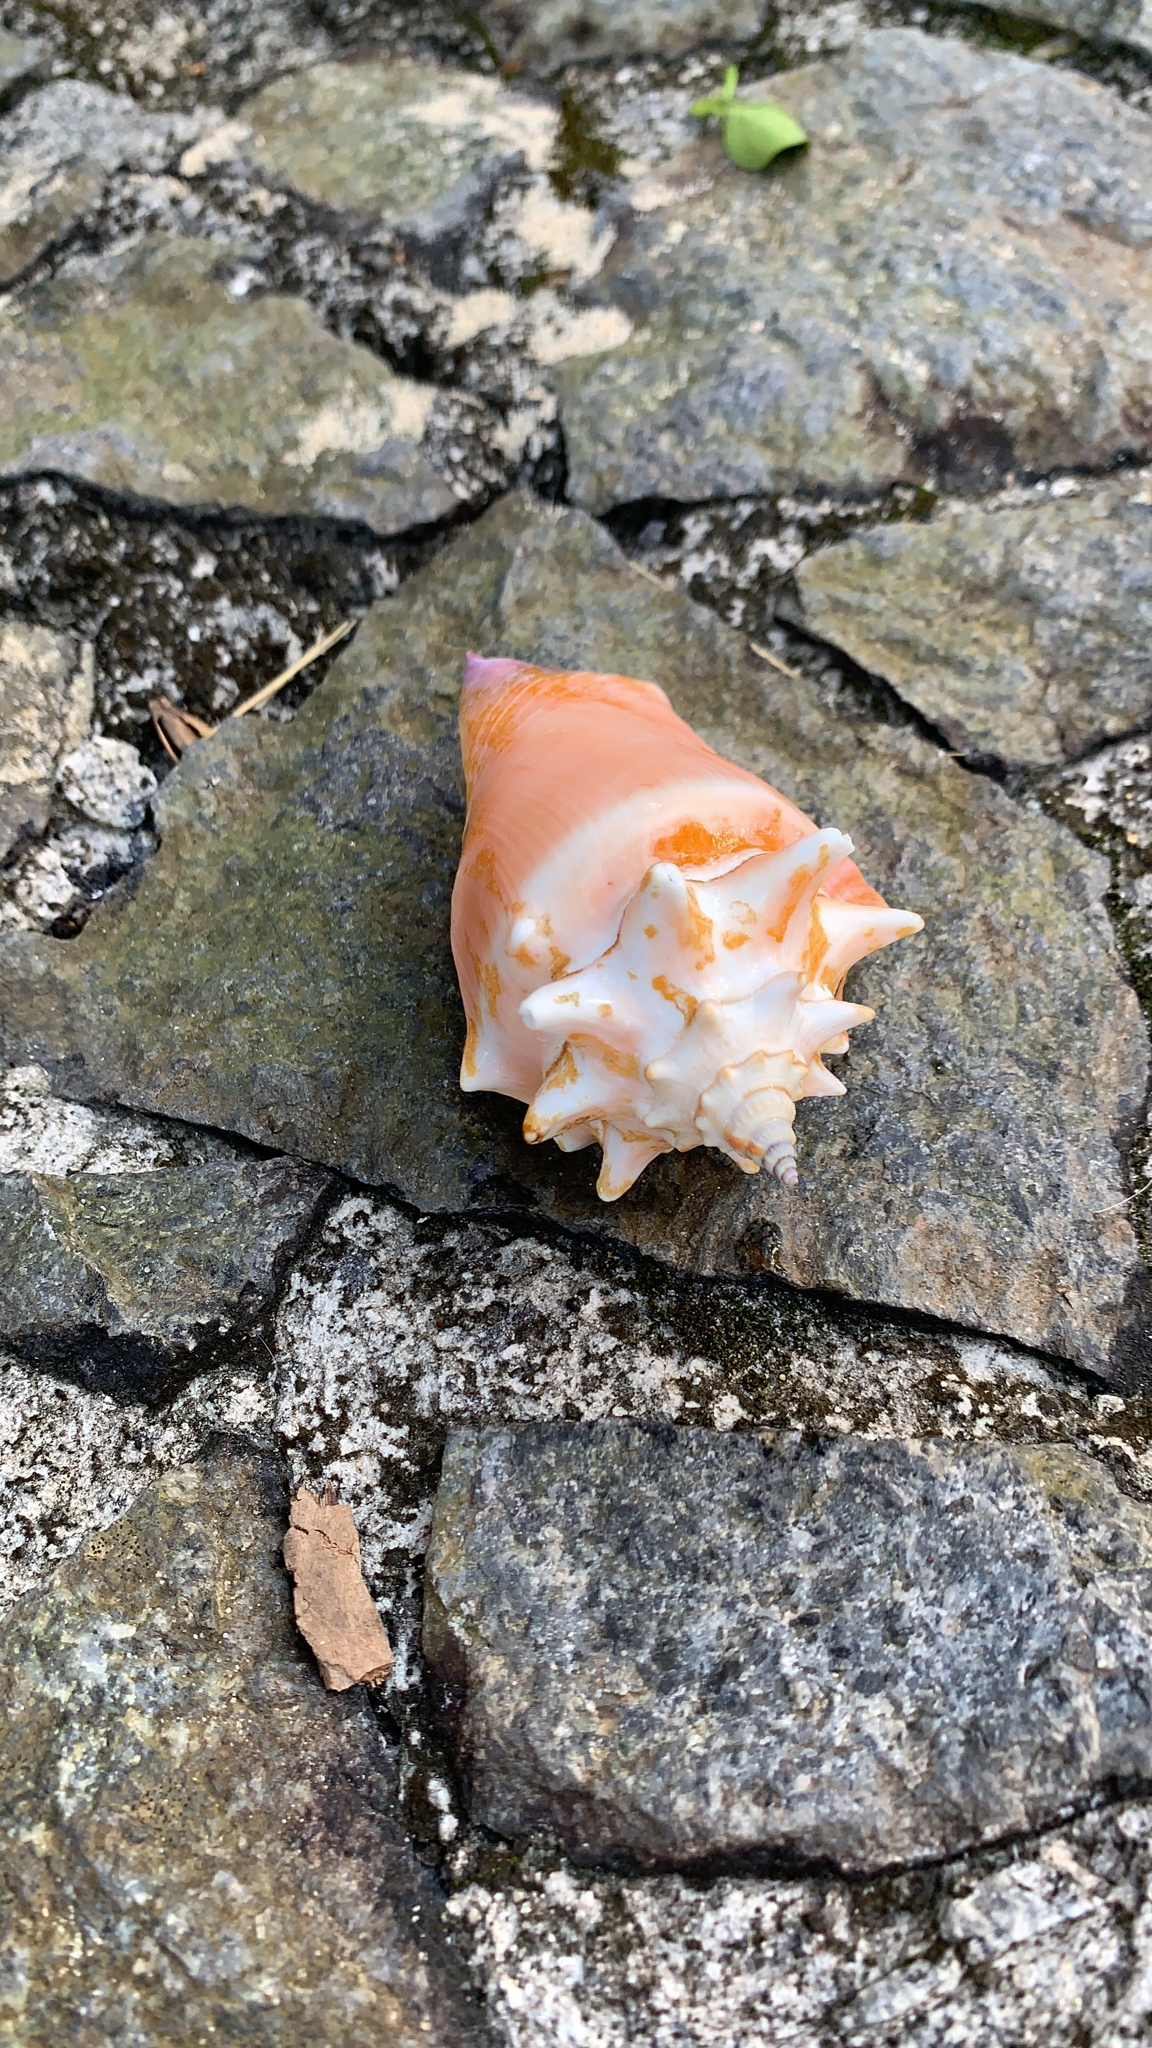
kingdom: Animalia
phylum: Mollusca
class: Gastropoda
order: Littorinimorpha
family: Strombidae
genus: Strombus
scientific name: Strombus pugilis
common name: West indian fighting conch
